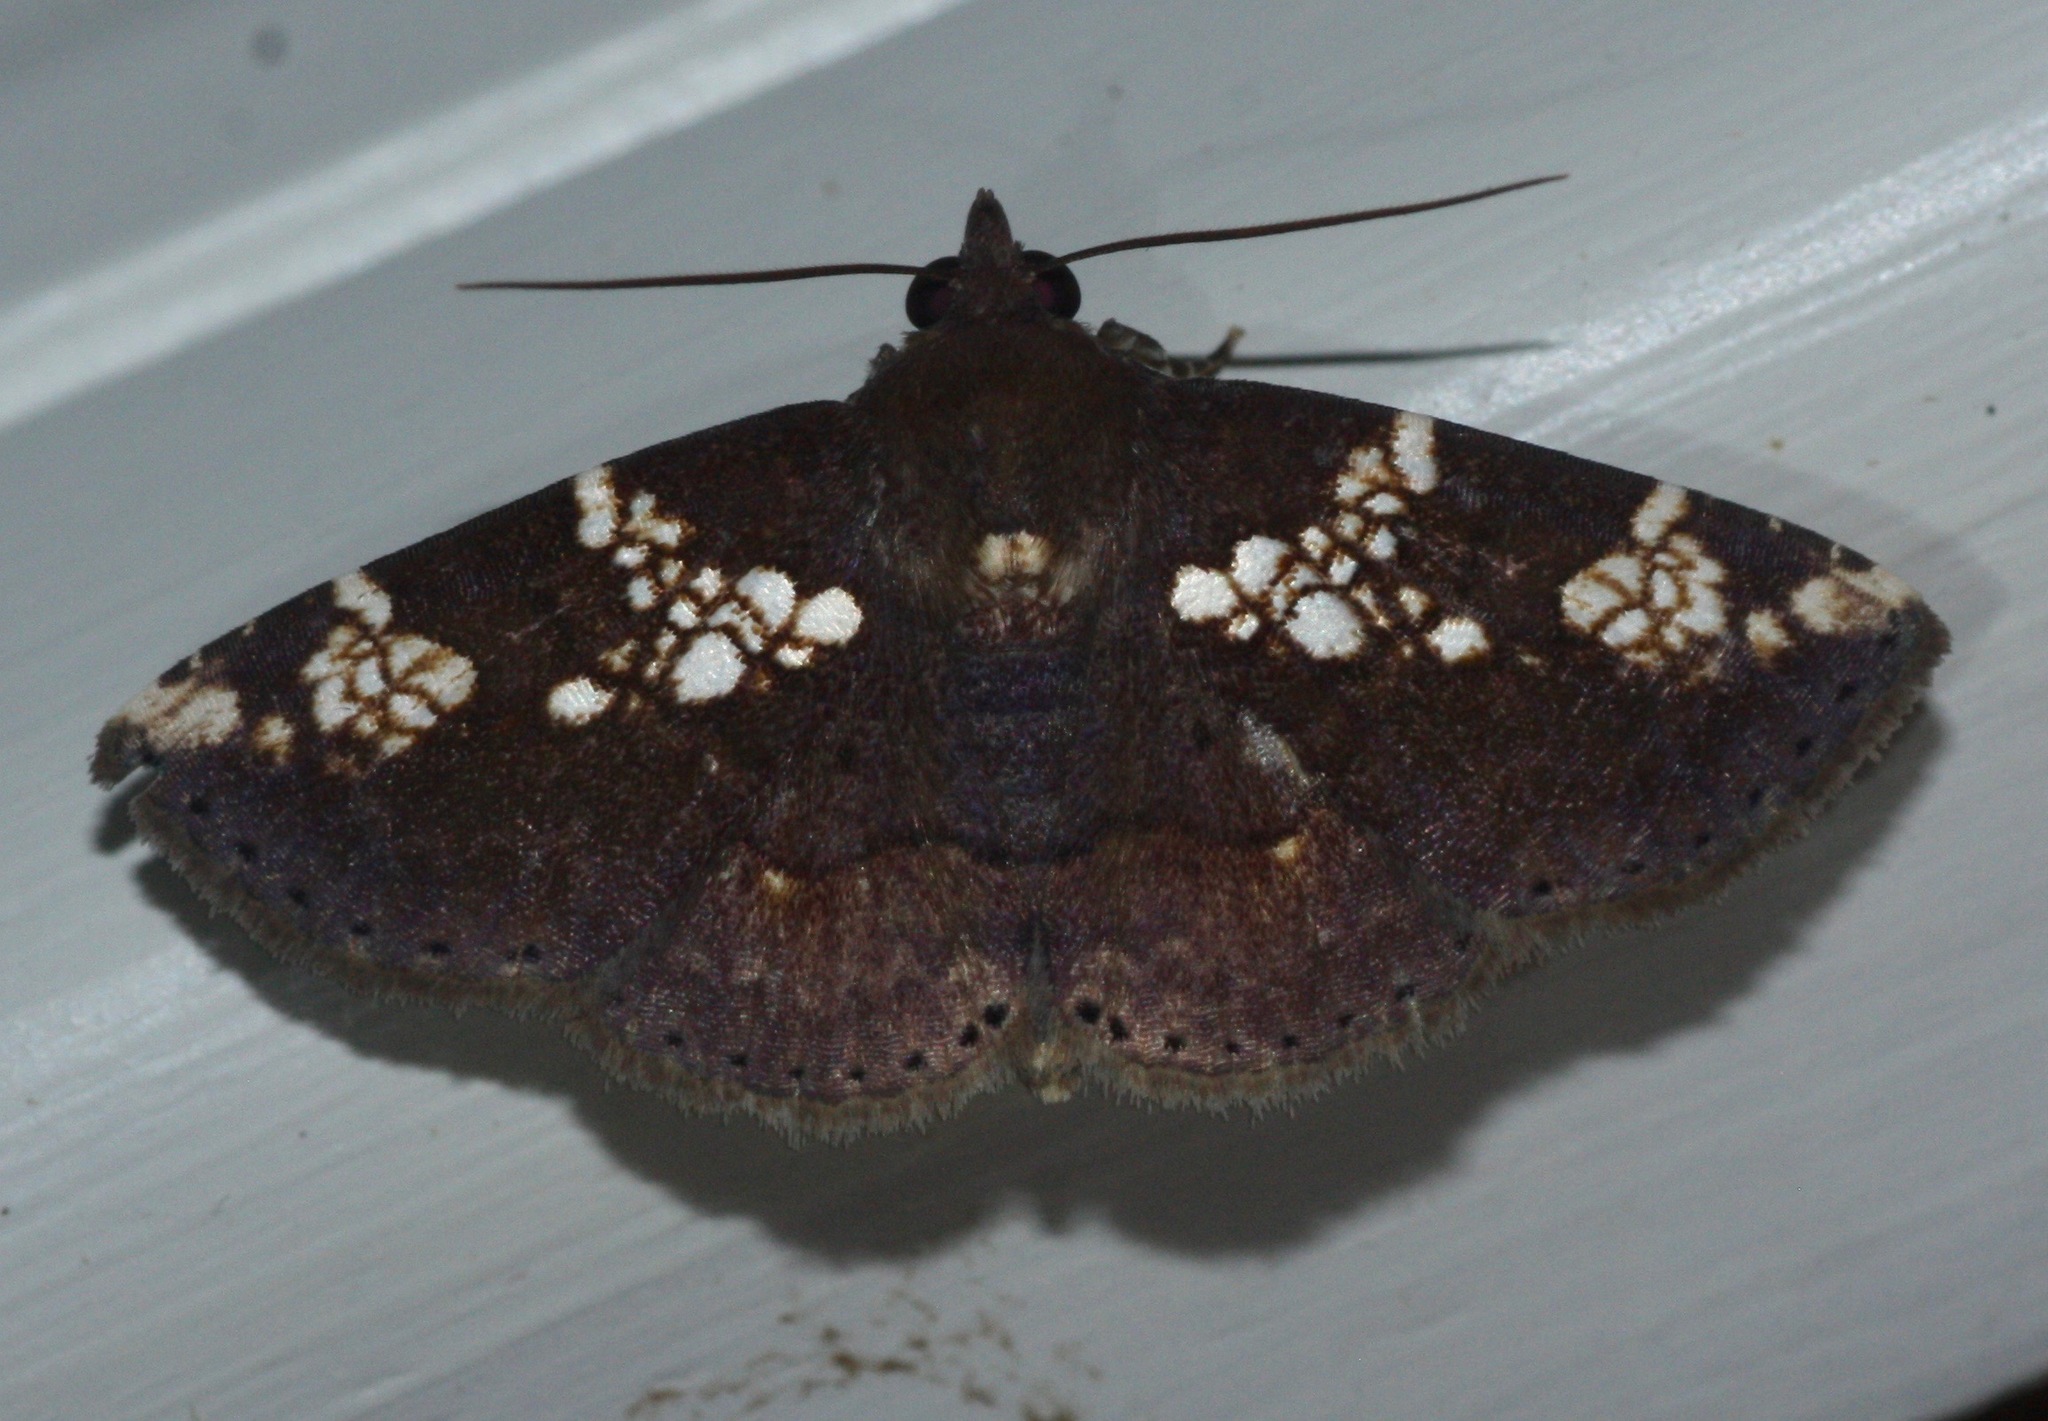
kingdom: Animalia
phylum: Arthropoda
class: Insecta
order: Lepidoptera
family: Erebidae
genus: Antiblemma
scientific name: Antiblemma perornata
